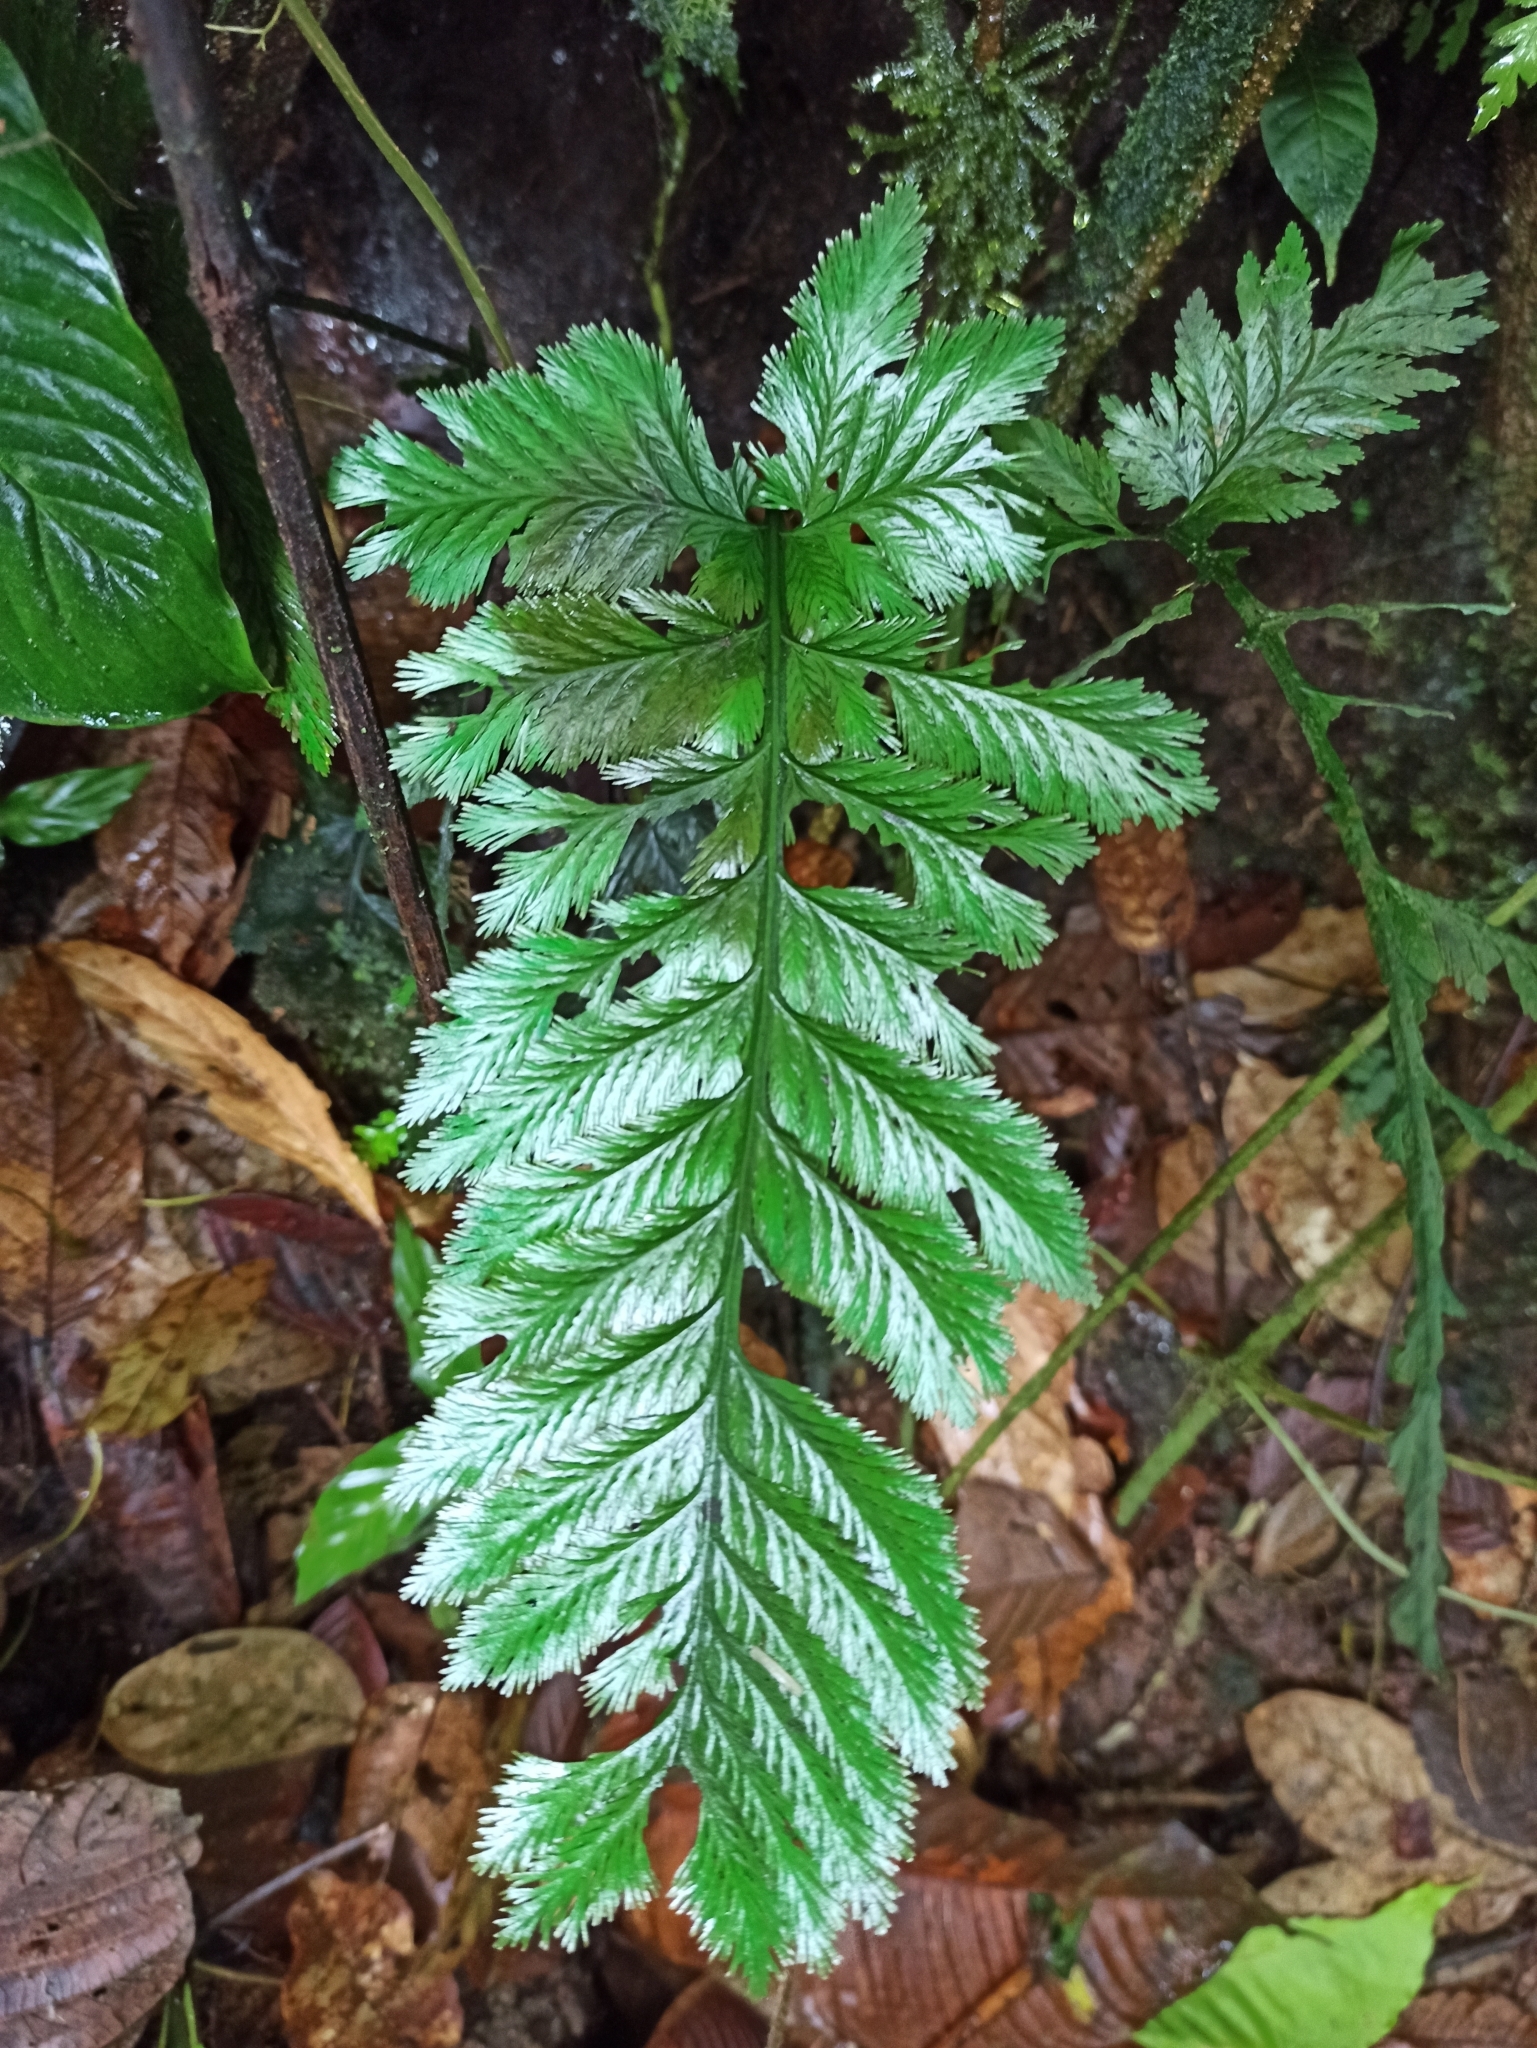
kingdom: Plantae
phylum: Tracheophyta
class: Polypodiopsida
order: Hymenophyllales
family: Hymenophyllaceae
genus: Trichomanes
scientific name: Trichomanes elegans
